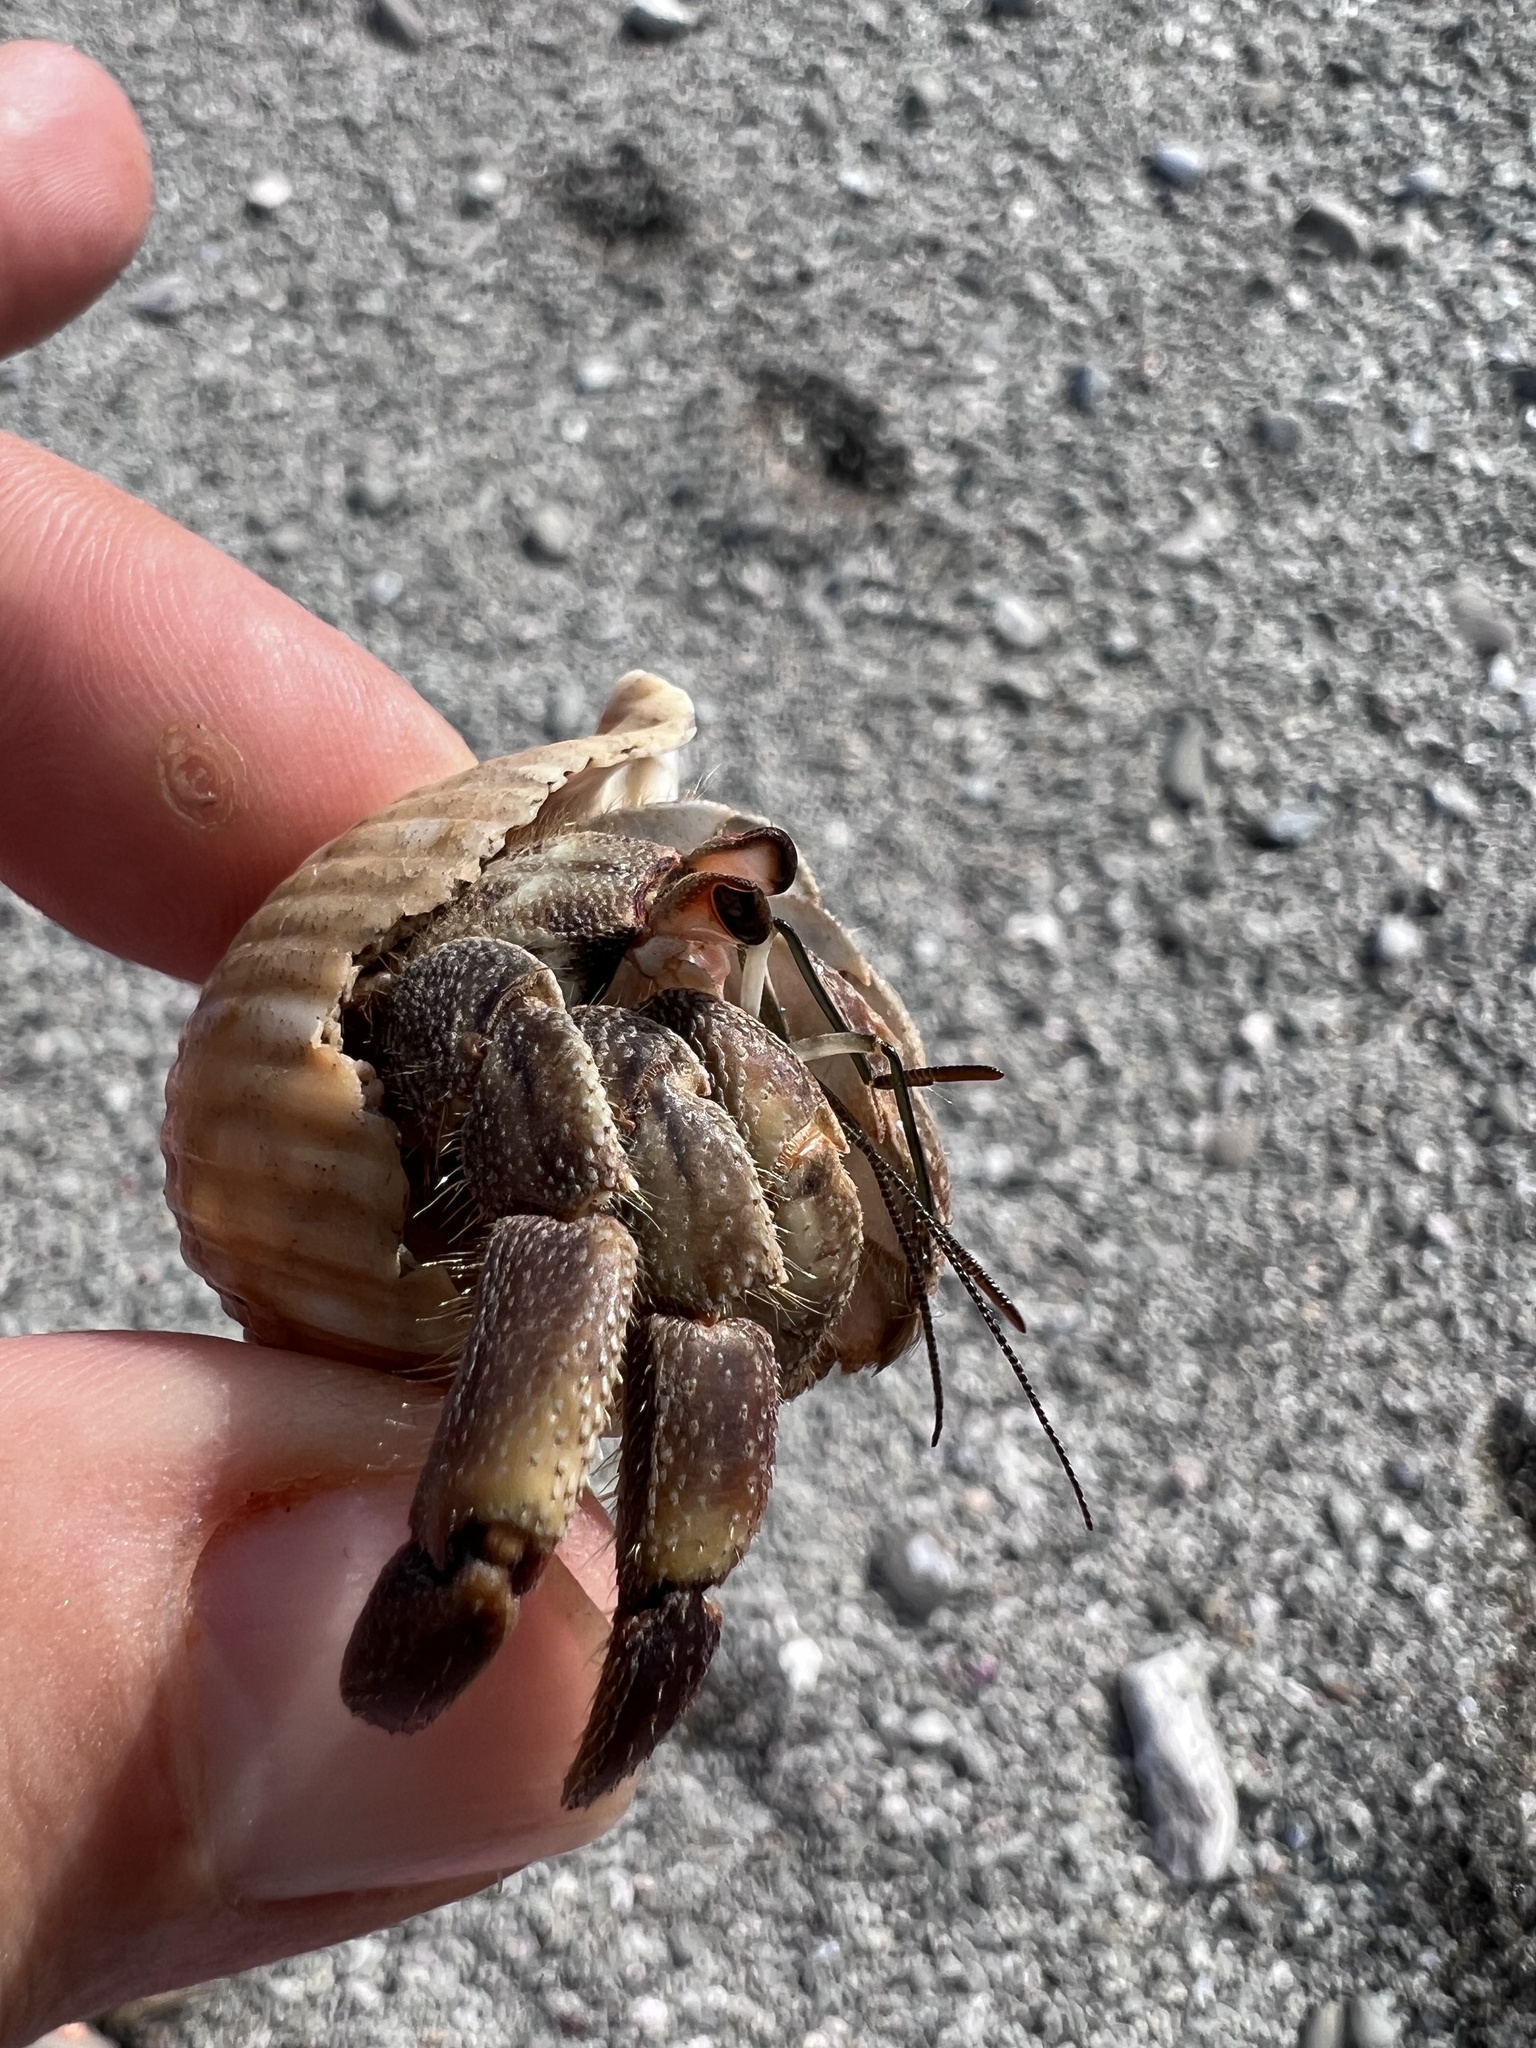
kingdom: Animalia
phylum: Arthropoda
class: Malacostraca
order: Decapoda
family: Coenobitidae
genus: Coenobita
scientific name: Coenobita compressus
